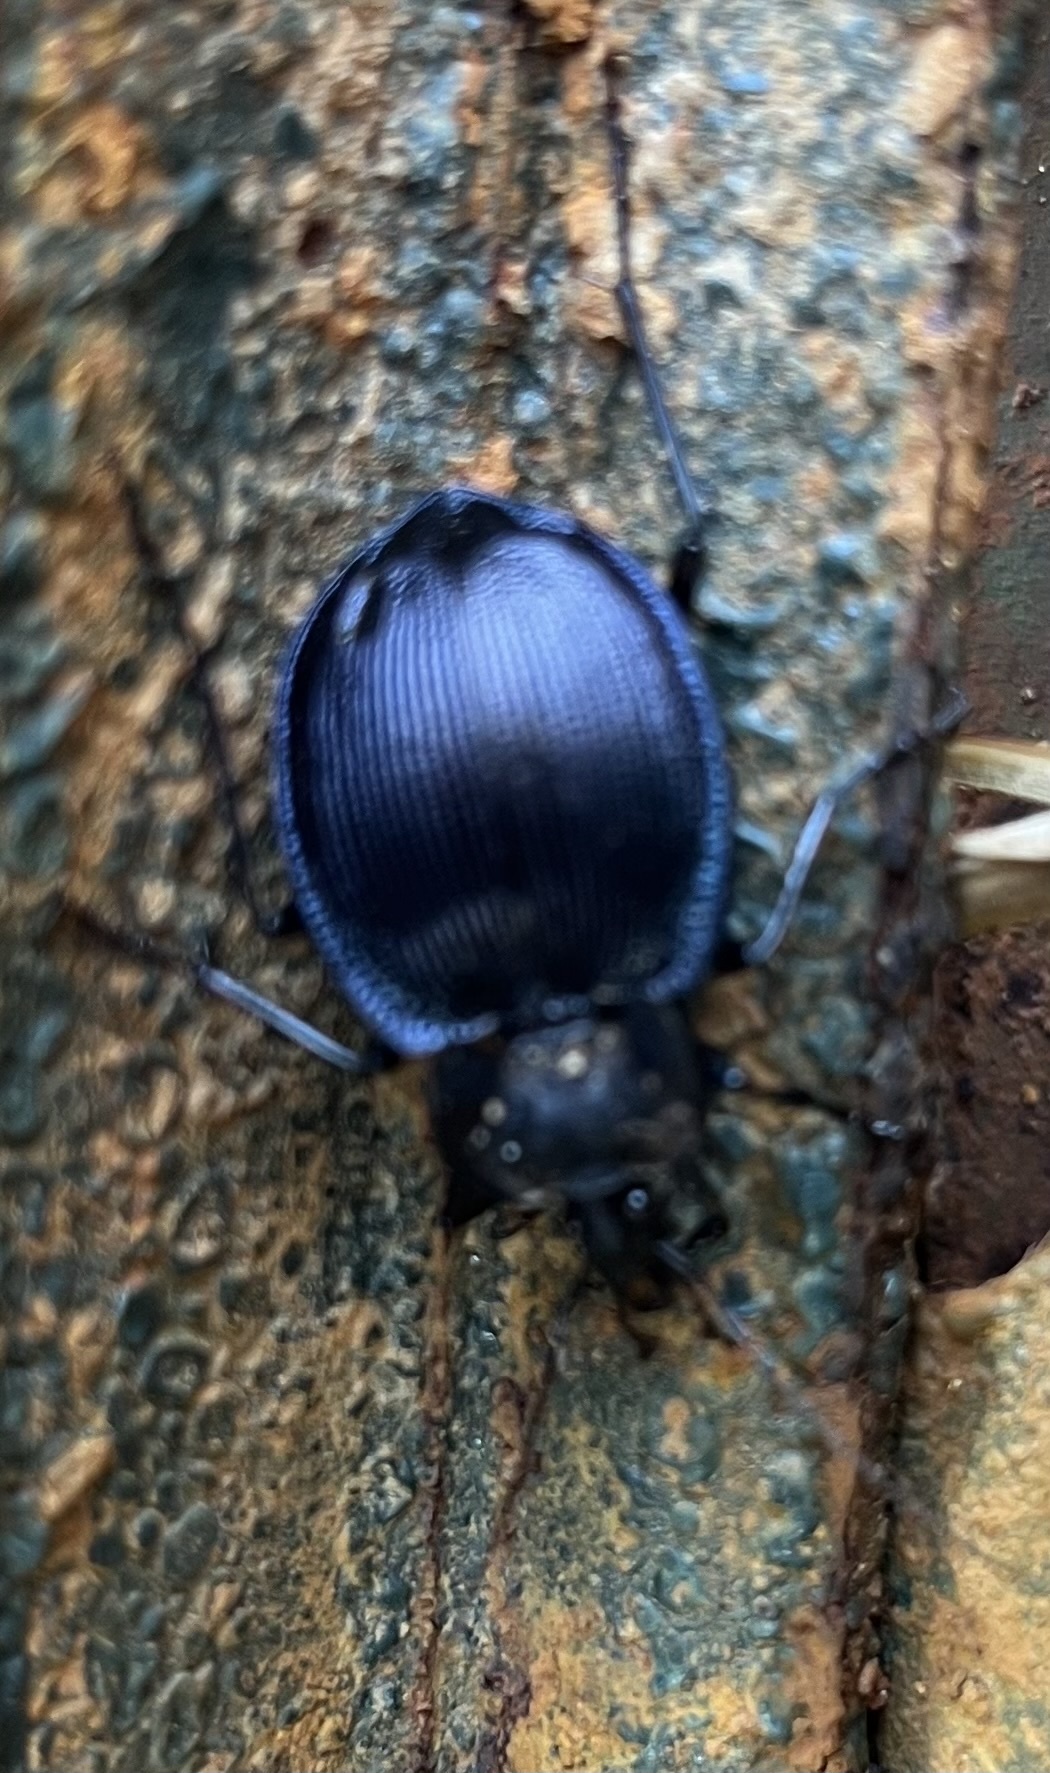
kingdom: Animalia
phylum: Arthropoda
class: Insecta
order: Coleoptera
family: Carabidae
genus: Scaphinotus
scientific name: Scaphinotus unicolor
